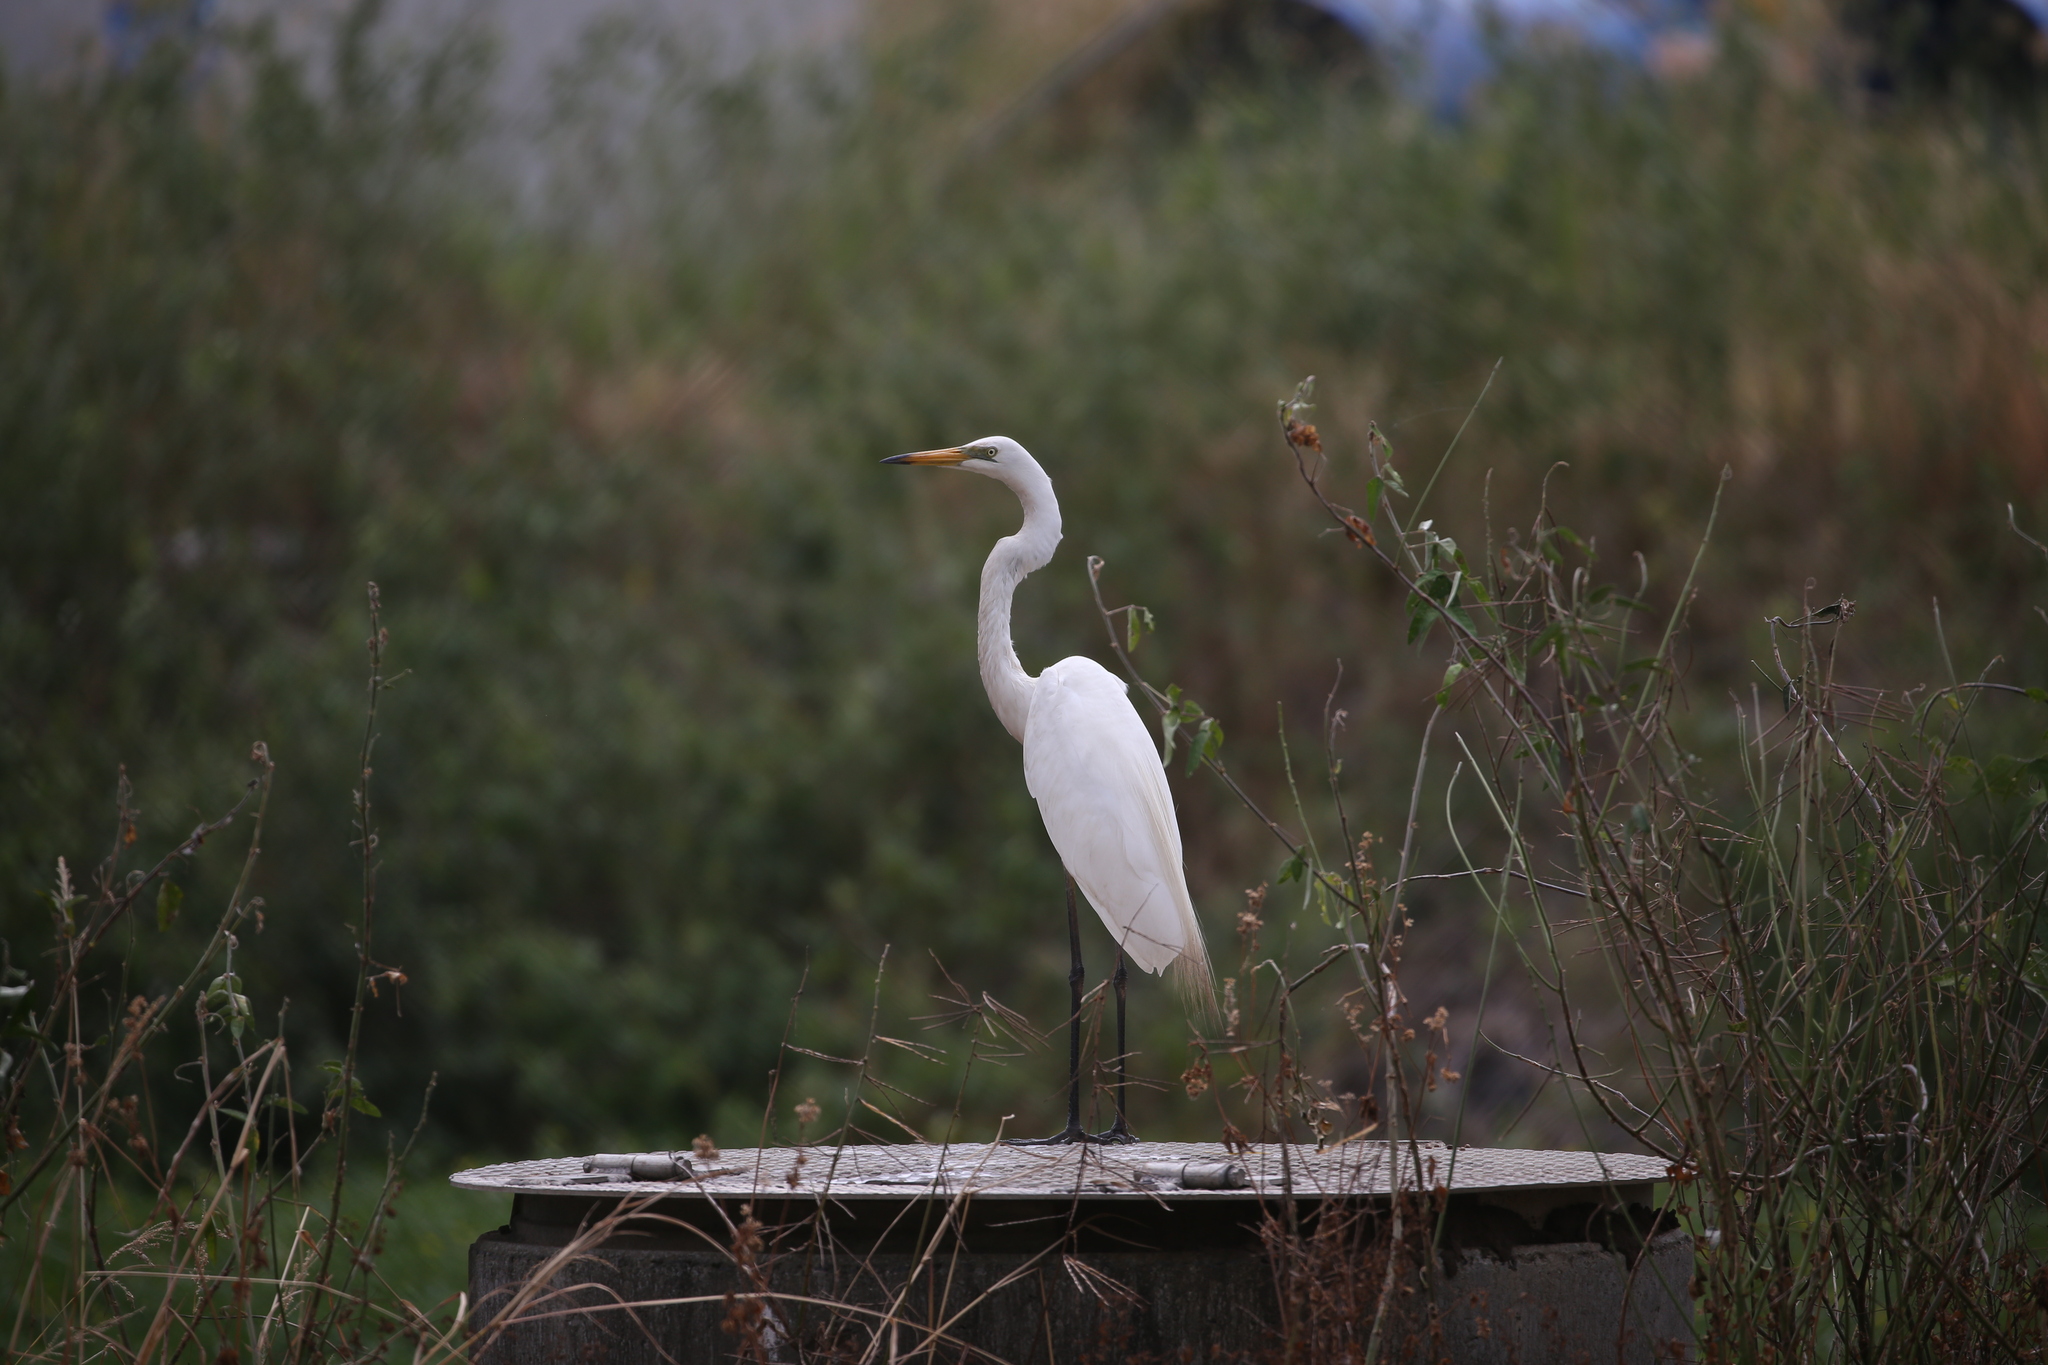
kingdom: Animalia
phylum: Chordata
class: Aves
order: Pelecaniformes
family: Ardeidae
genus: Ardea
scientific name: Ardea alba
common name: Great egret
